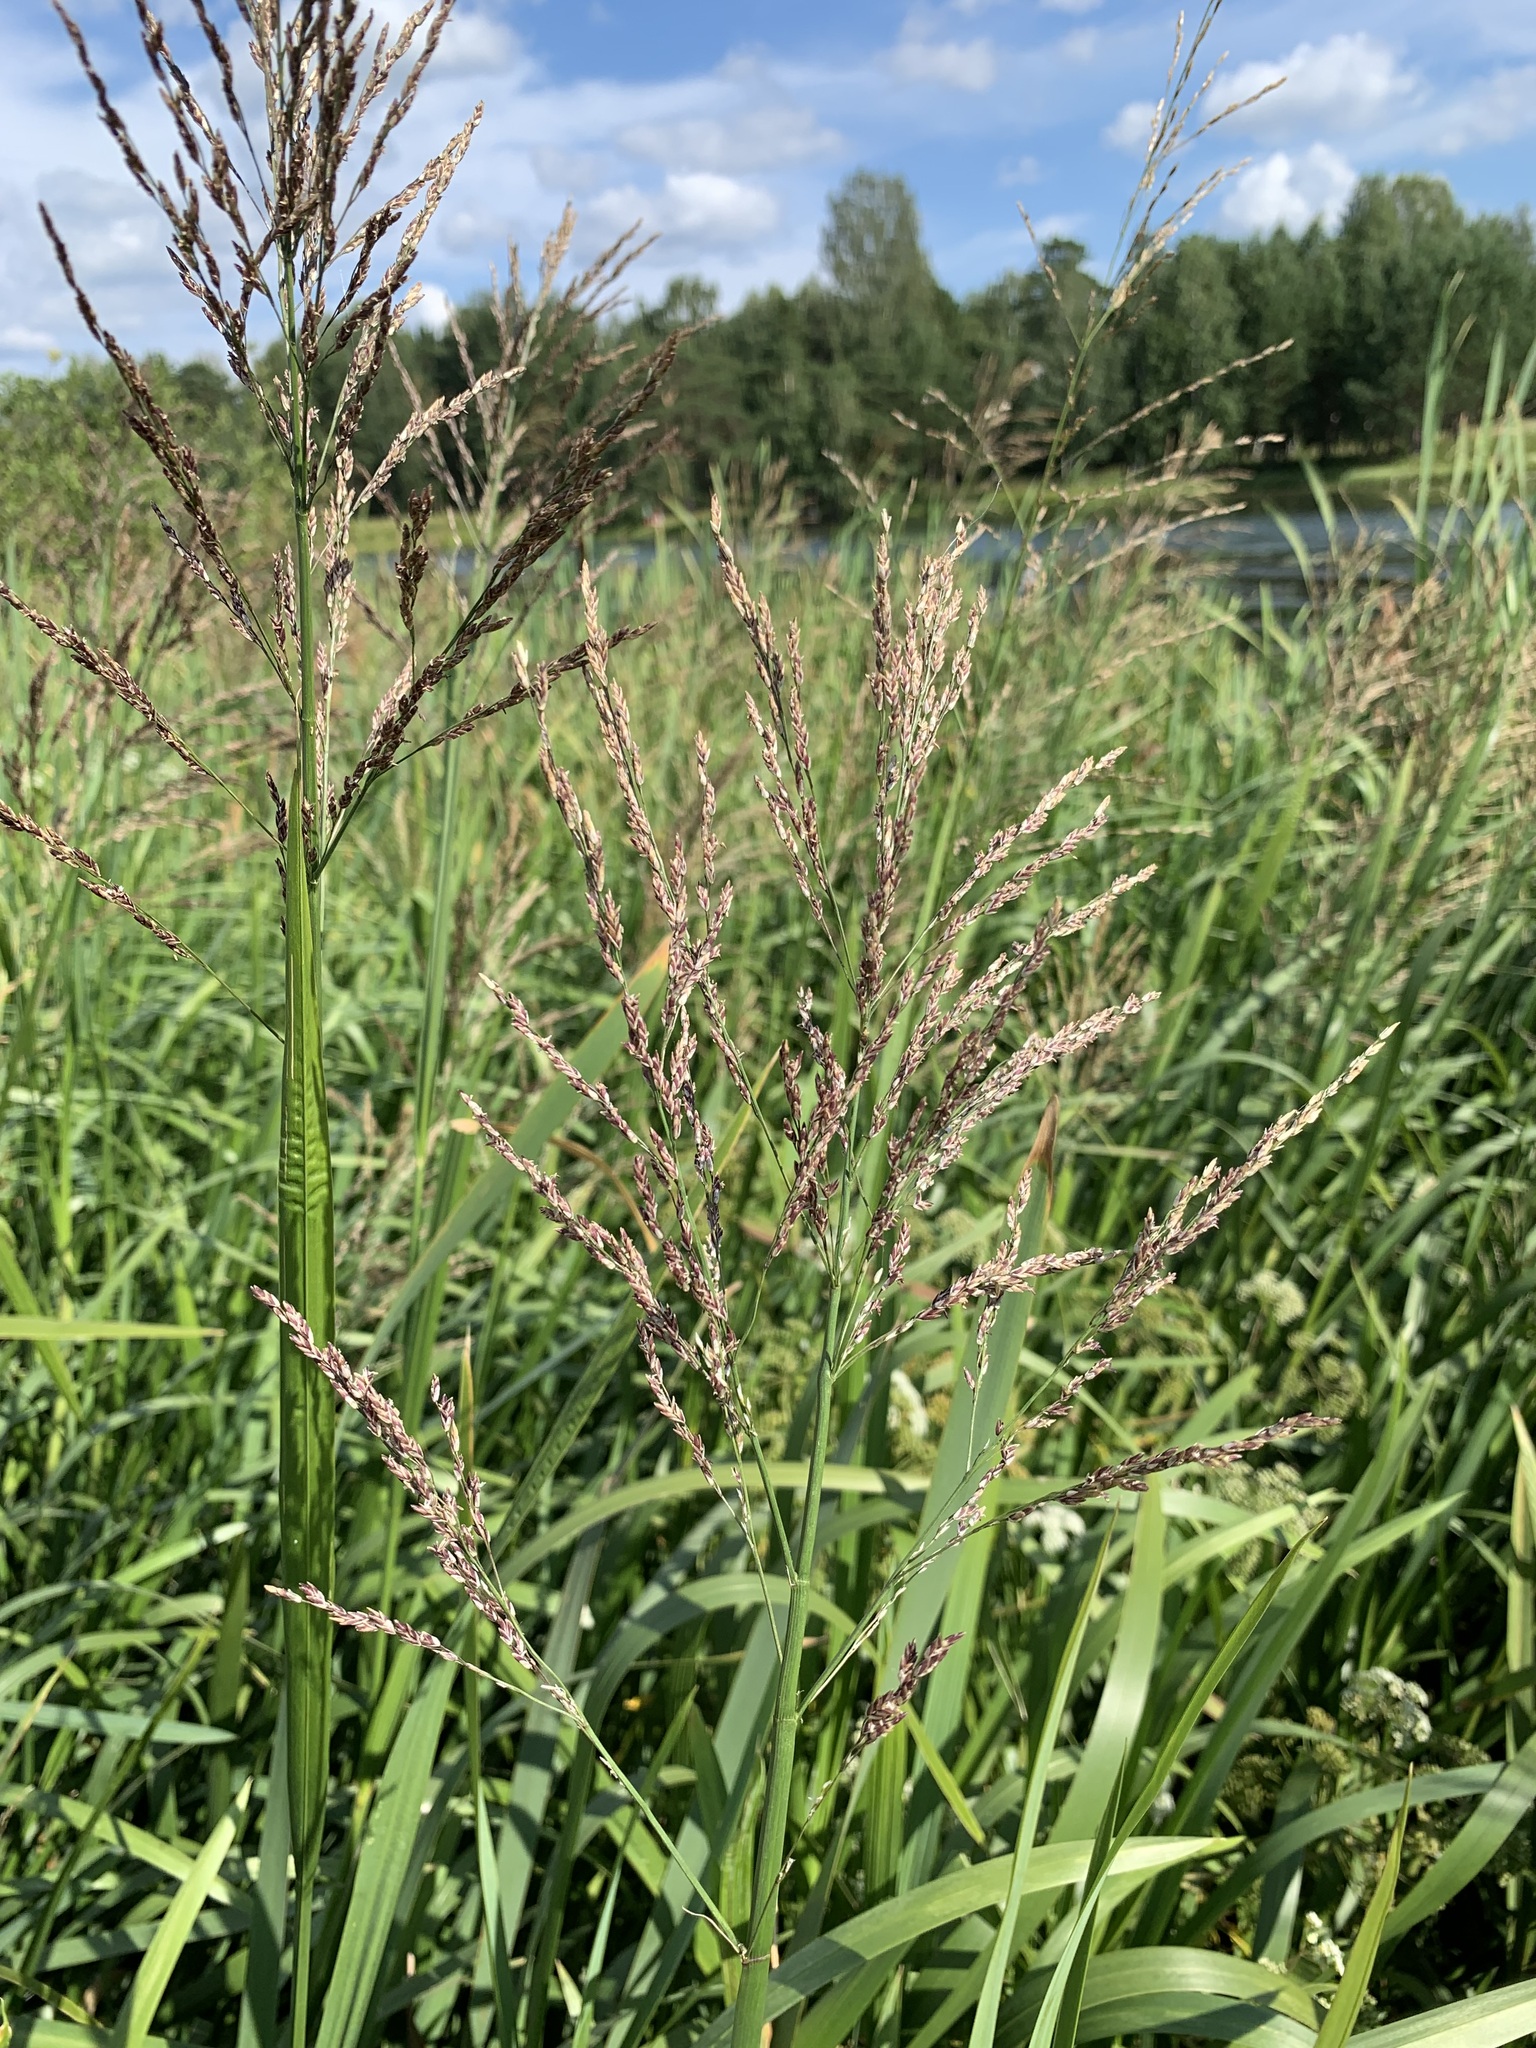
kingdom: Plantae
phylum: Tracheophyta
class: Liliopsida
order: Poales
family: Poaceae
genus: Glyceria
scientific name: Glyceria maxima
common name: Reed mannagrass
